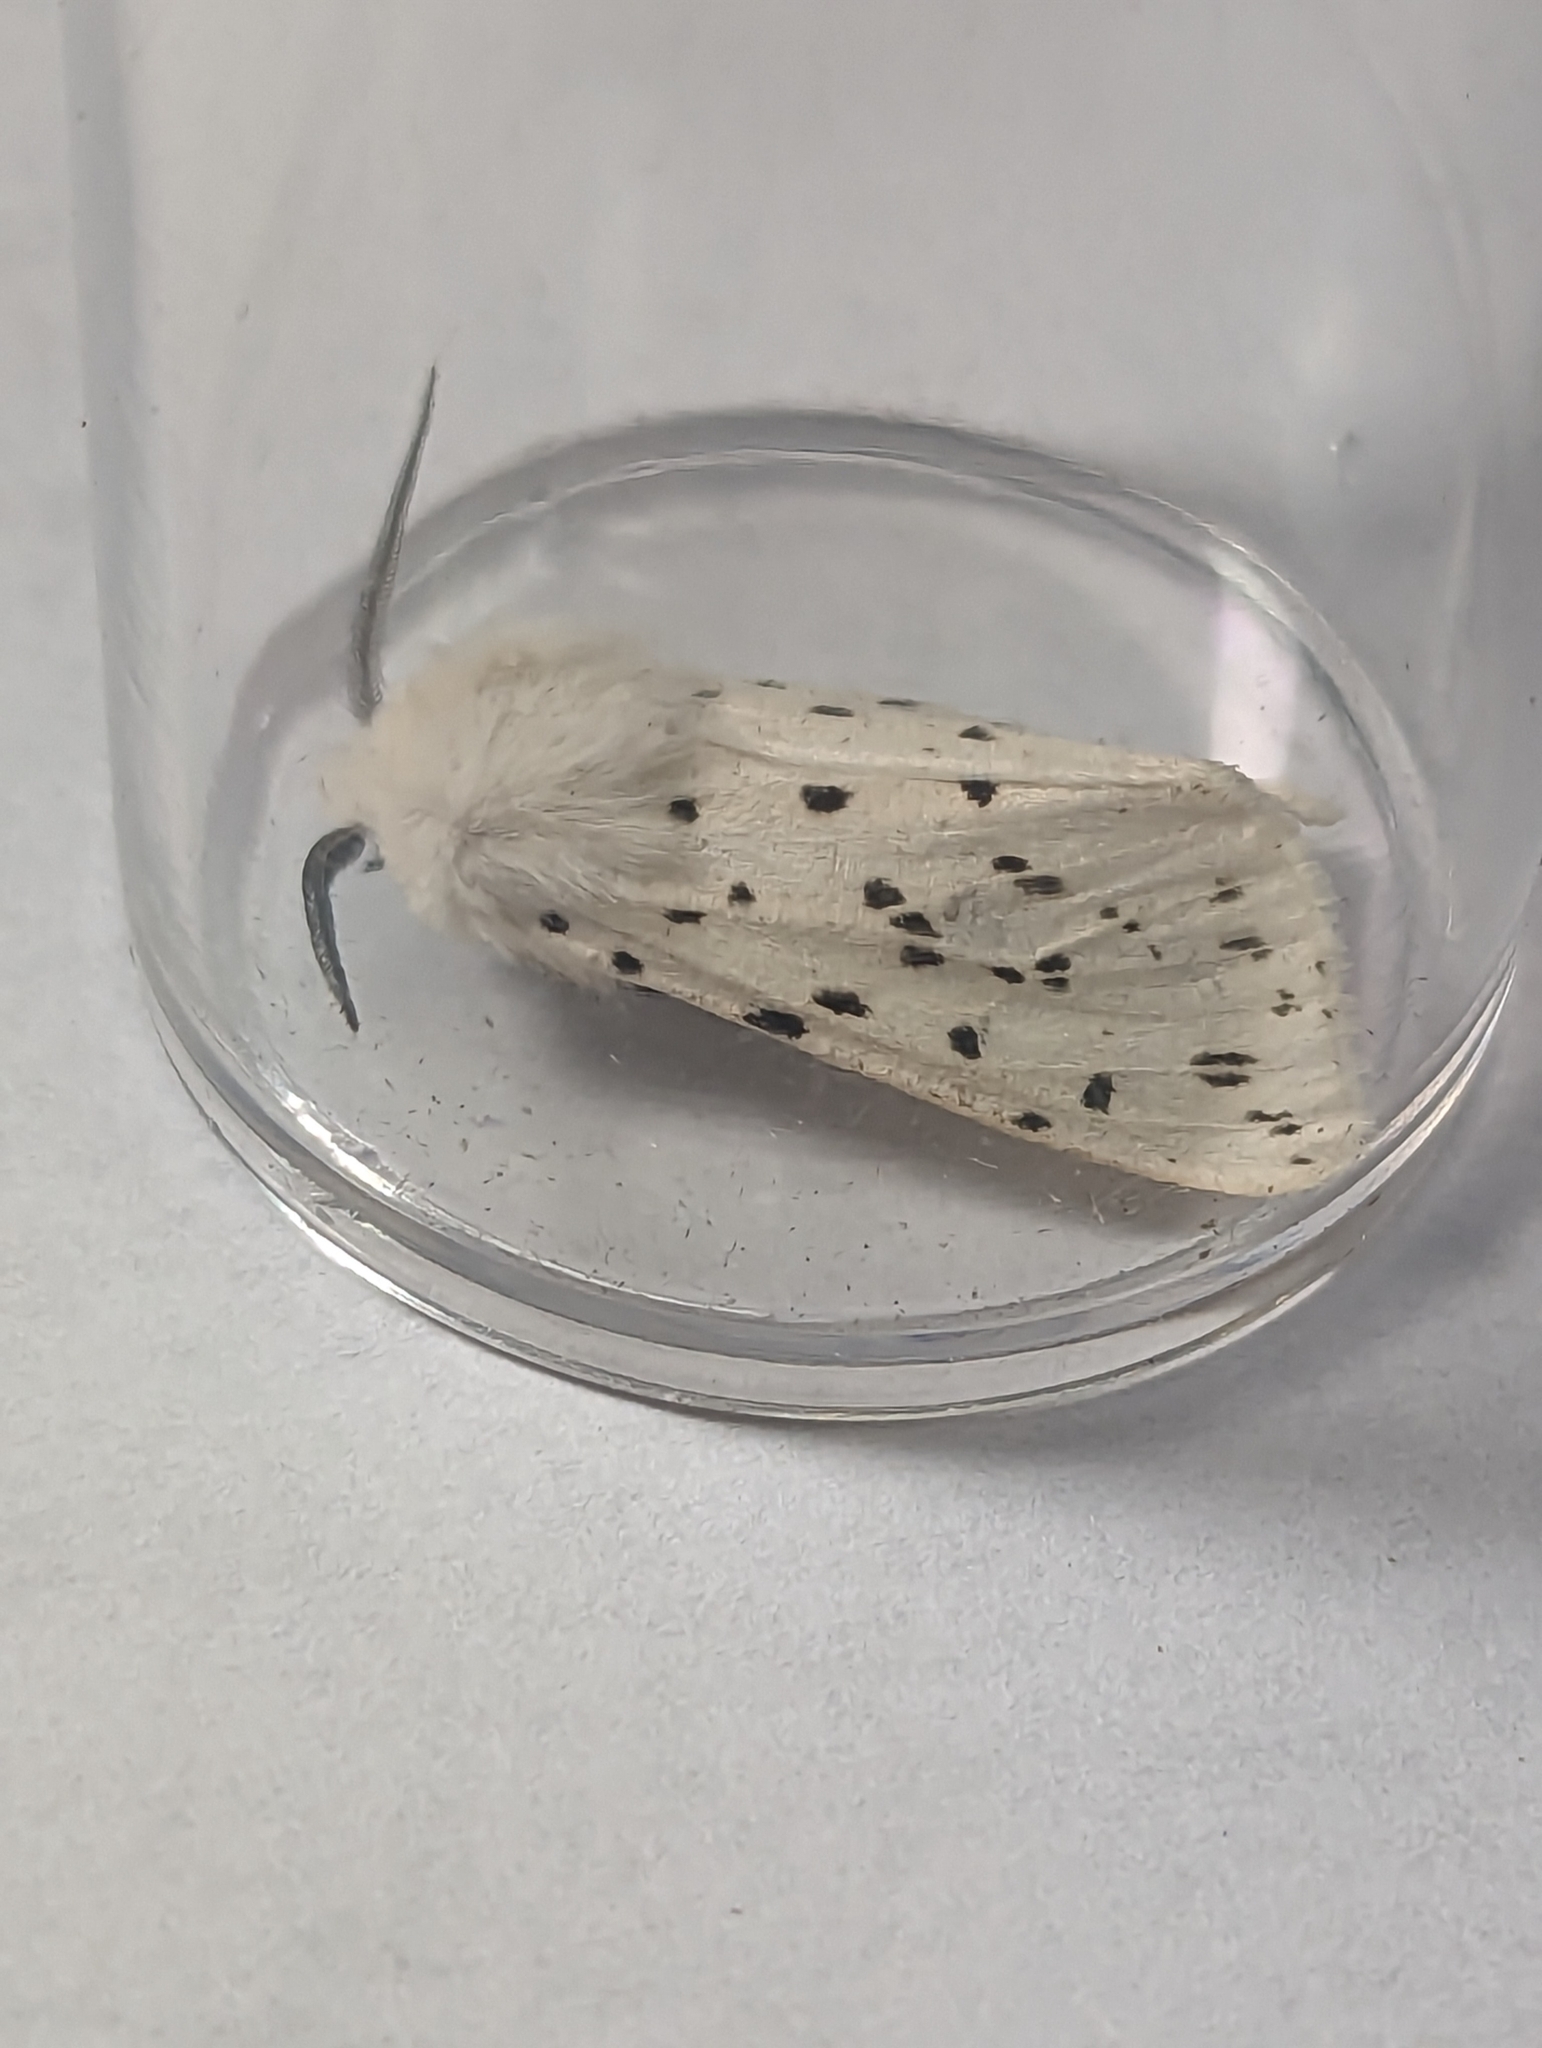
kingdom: Animalia
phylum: Arthropoda
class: Insecta
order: Lepidoptera
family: Erebidae
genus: Spilosoma
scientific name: Spilosoma lubricipeda
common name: White ermine
